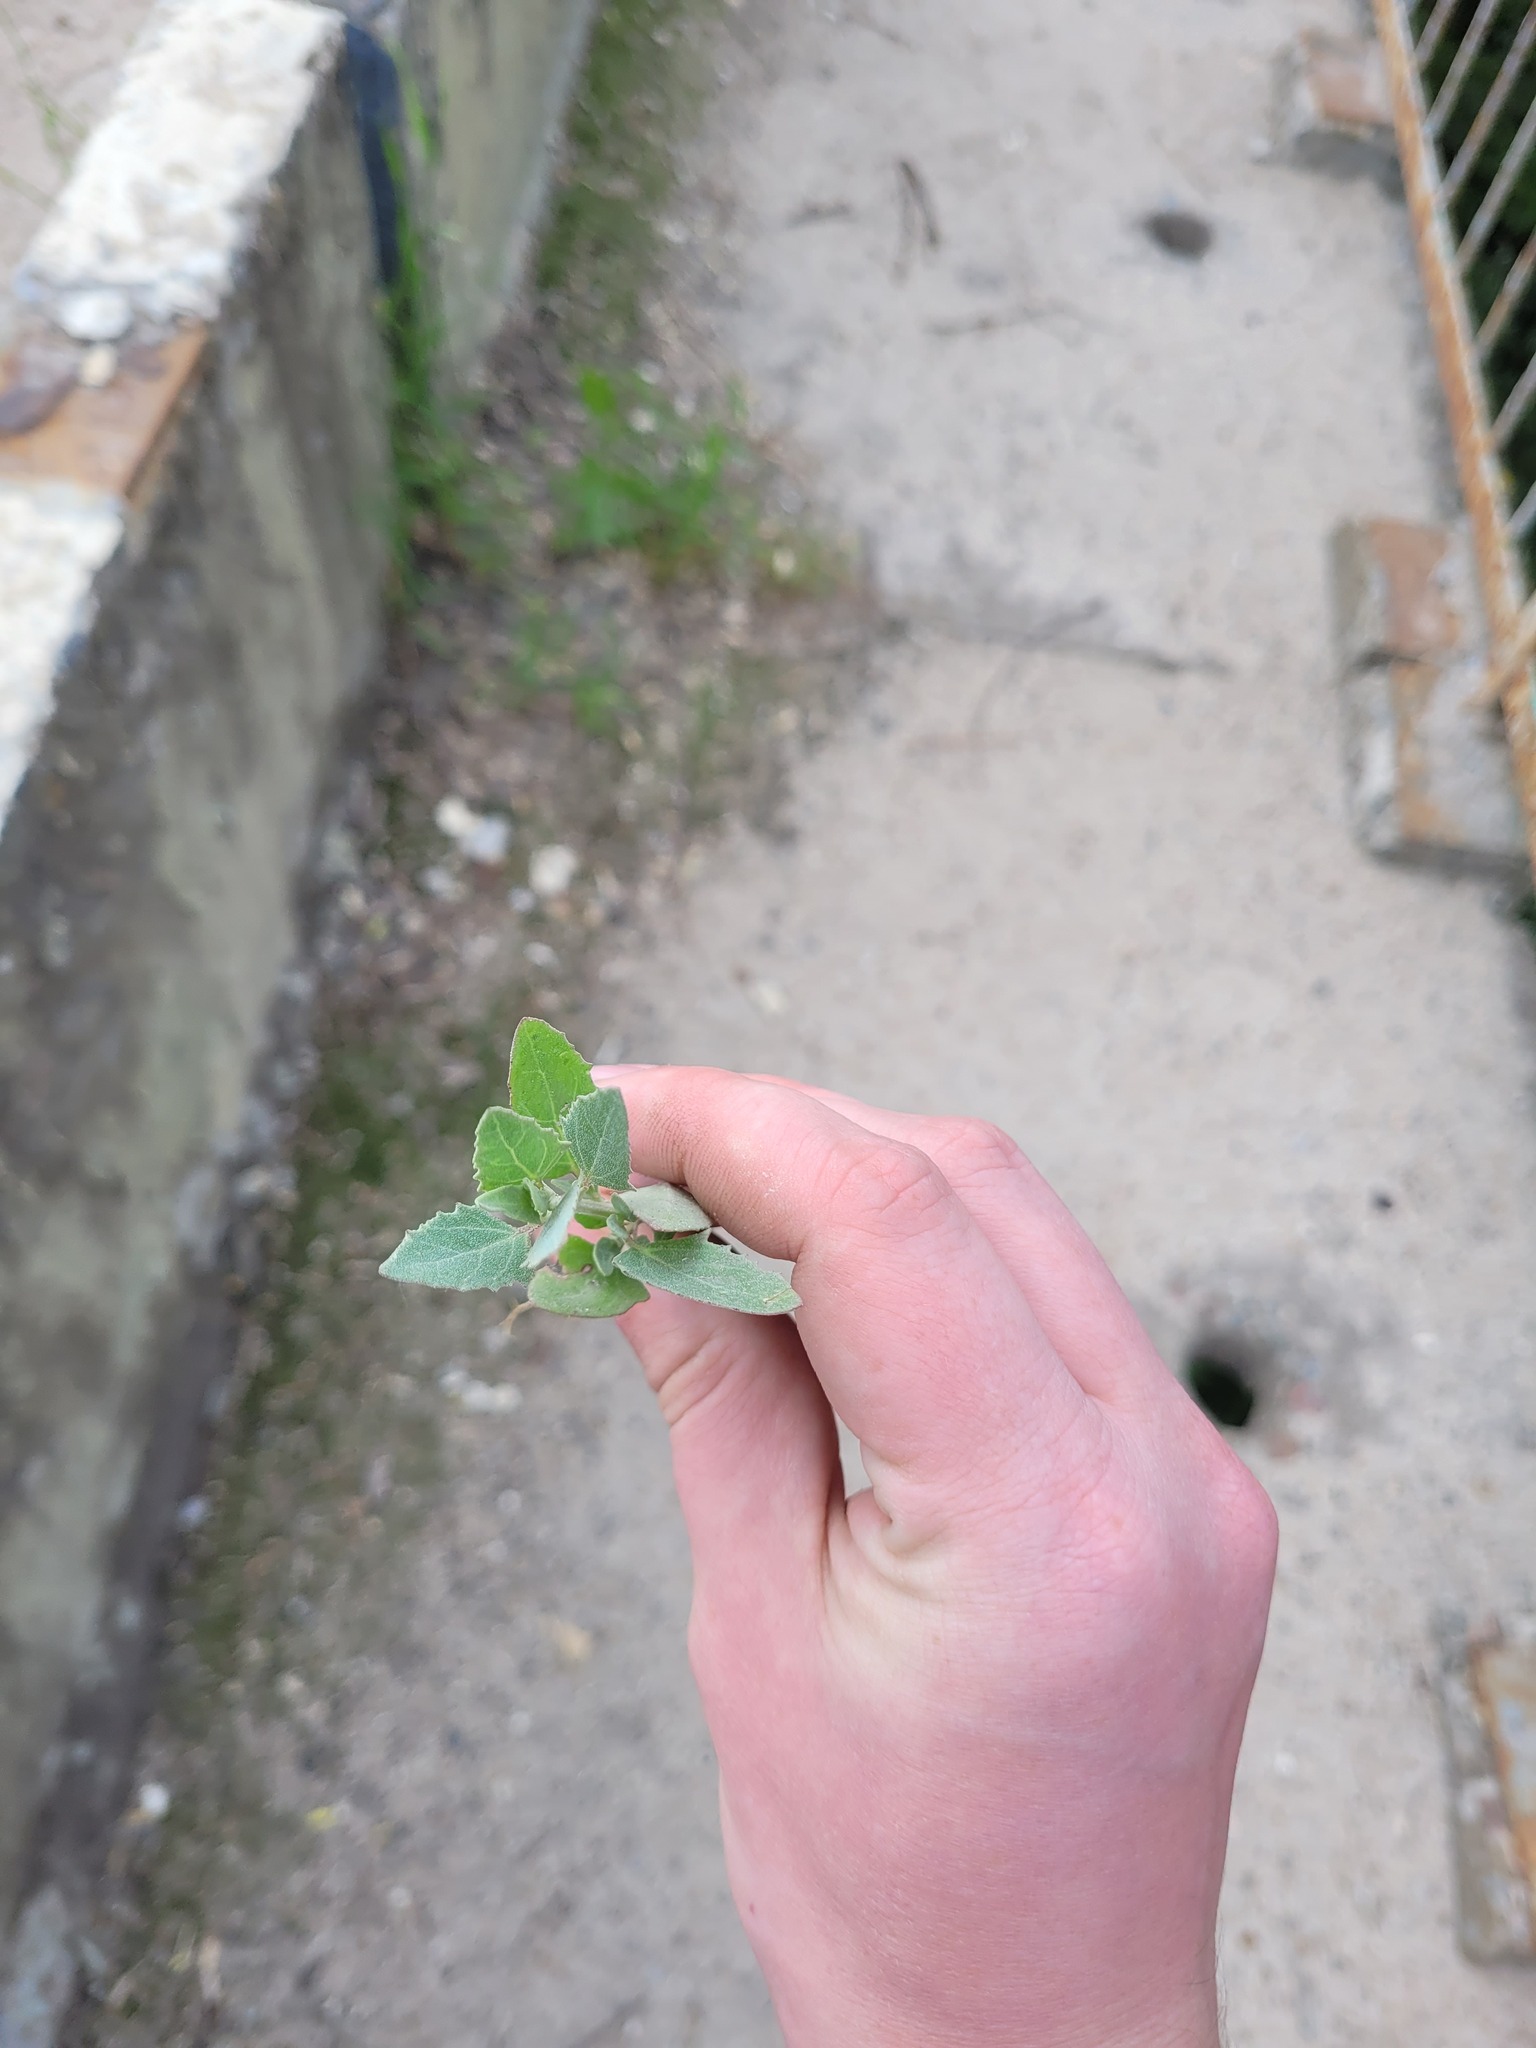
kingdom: Plantae
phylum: Tracheophyta
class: Magnoliopsida
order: Caryophyllales
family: Amaranthaceae
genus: Atriplex
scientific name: Atriplex oblongifolia
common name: Oblongleaf orache
